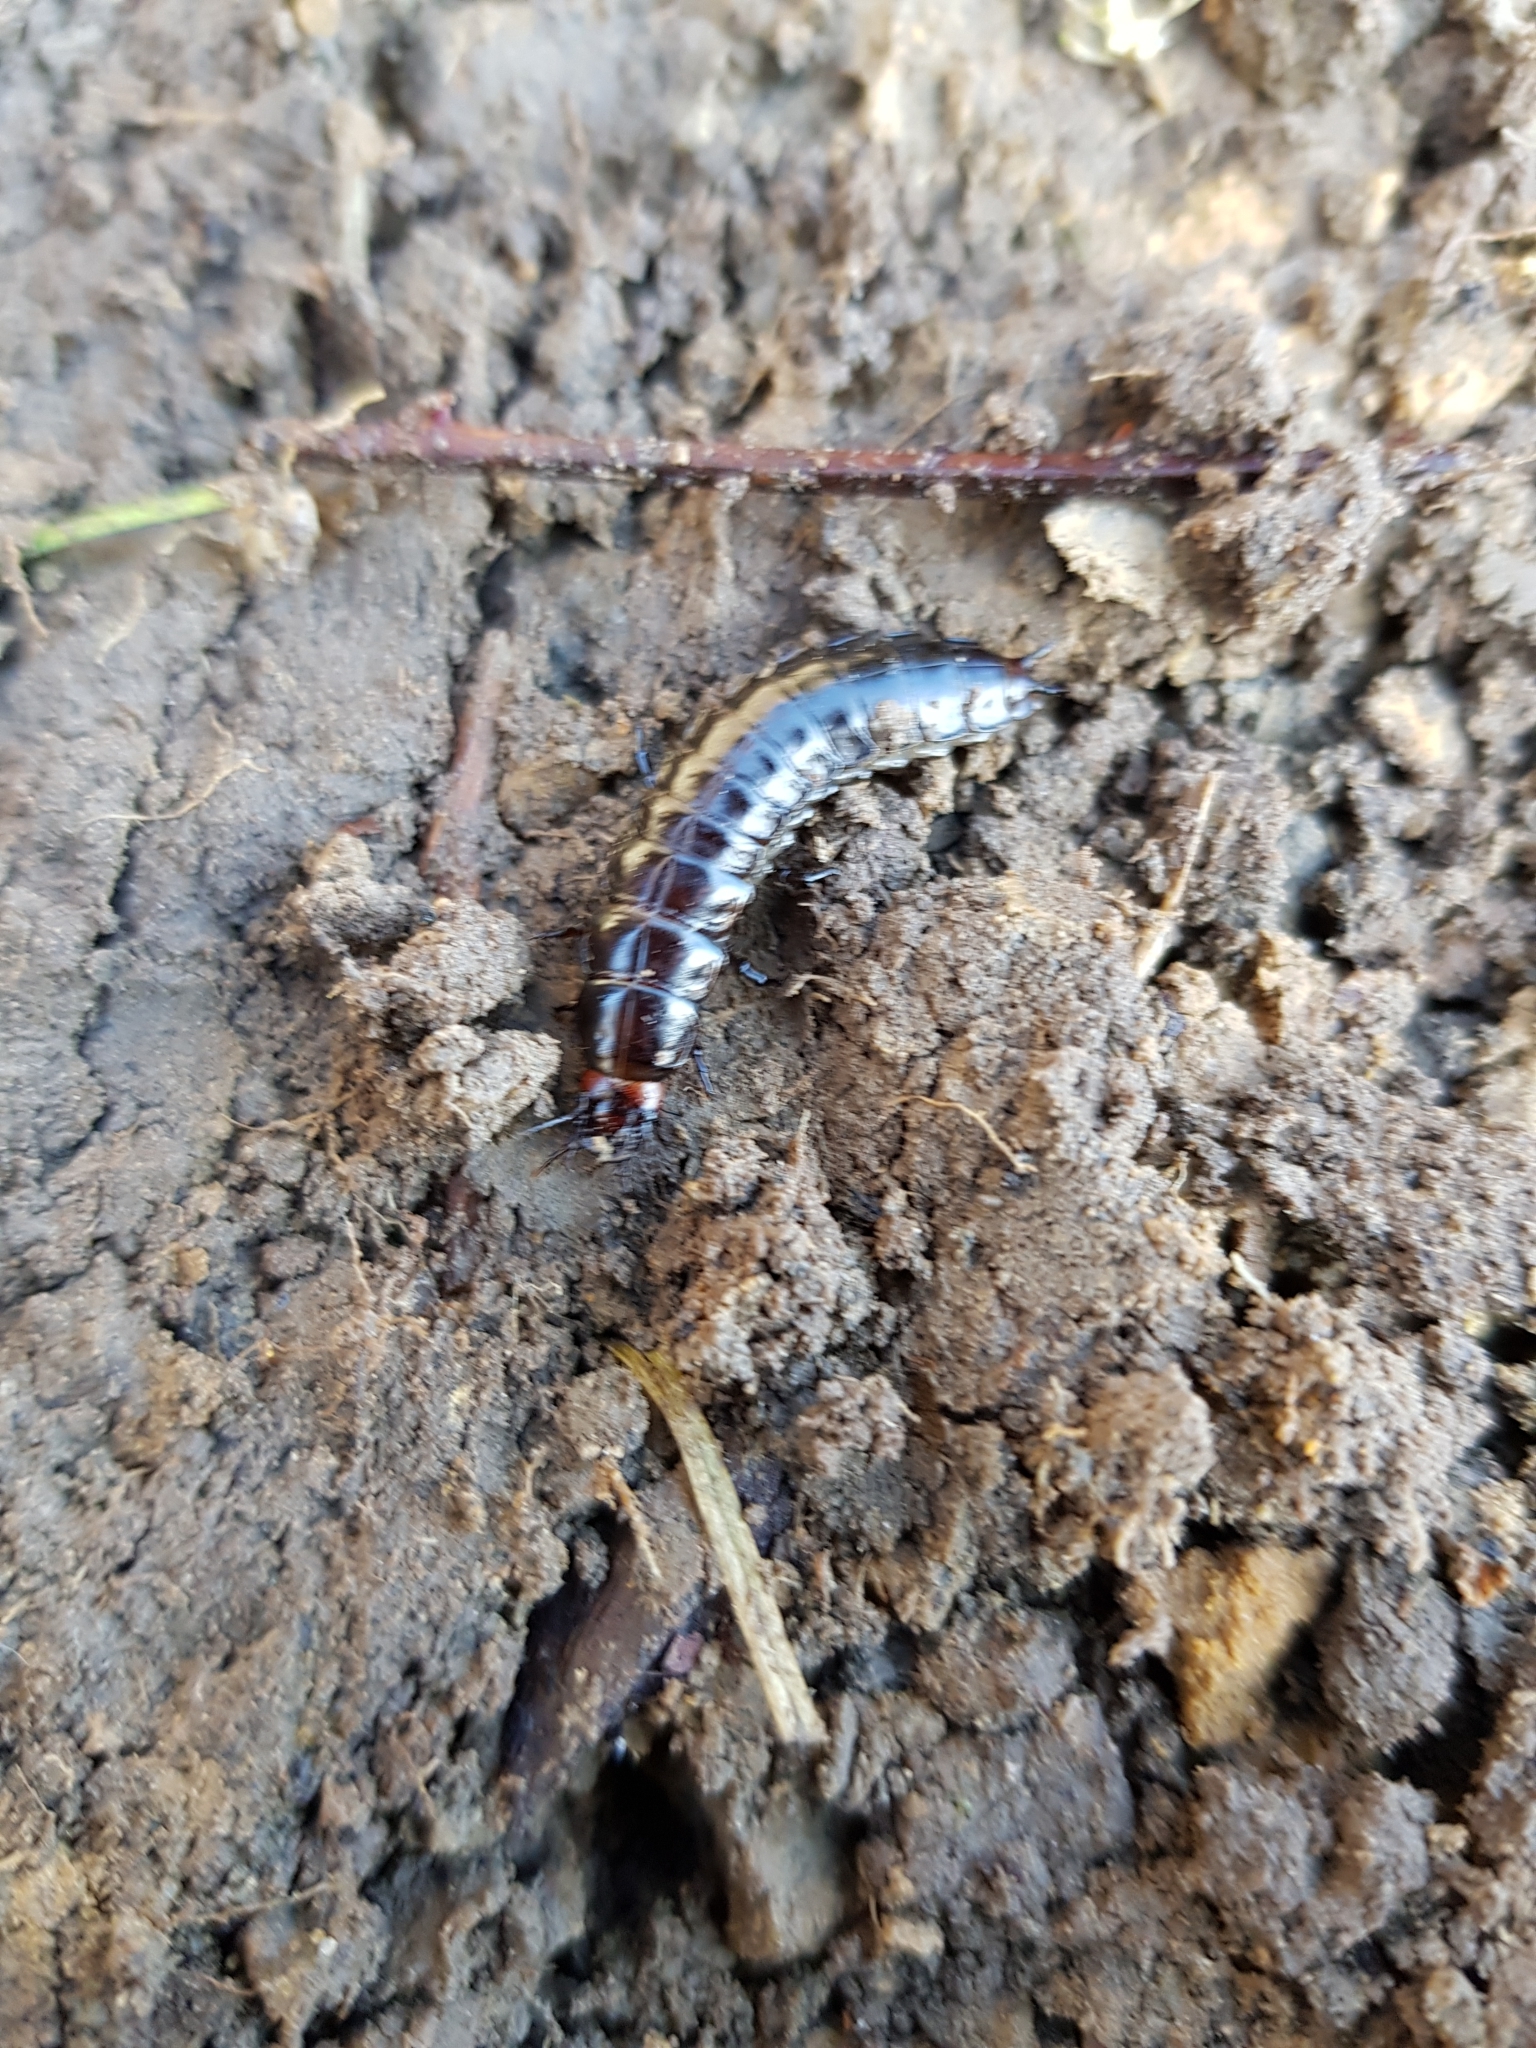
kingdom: Animalia
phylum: Arthropoda
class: Insecta
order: Coleoptera
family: Carabidae
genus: Carabus
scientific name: Carabus violaceus
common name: Violet ground beetle
